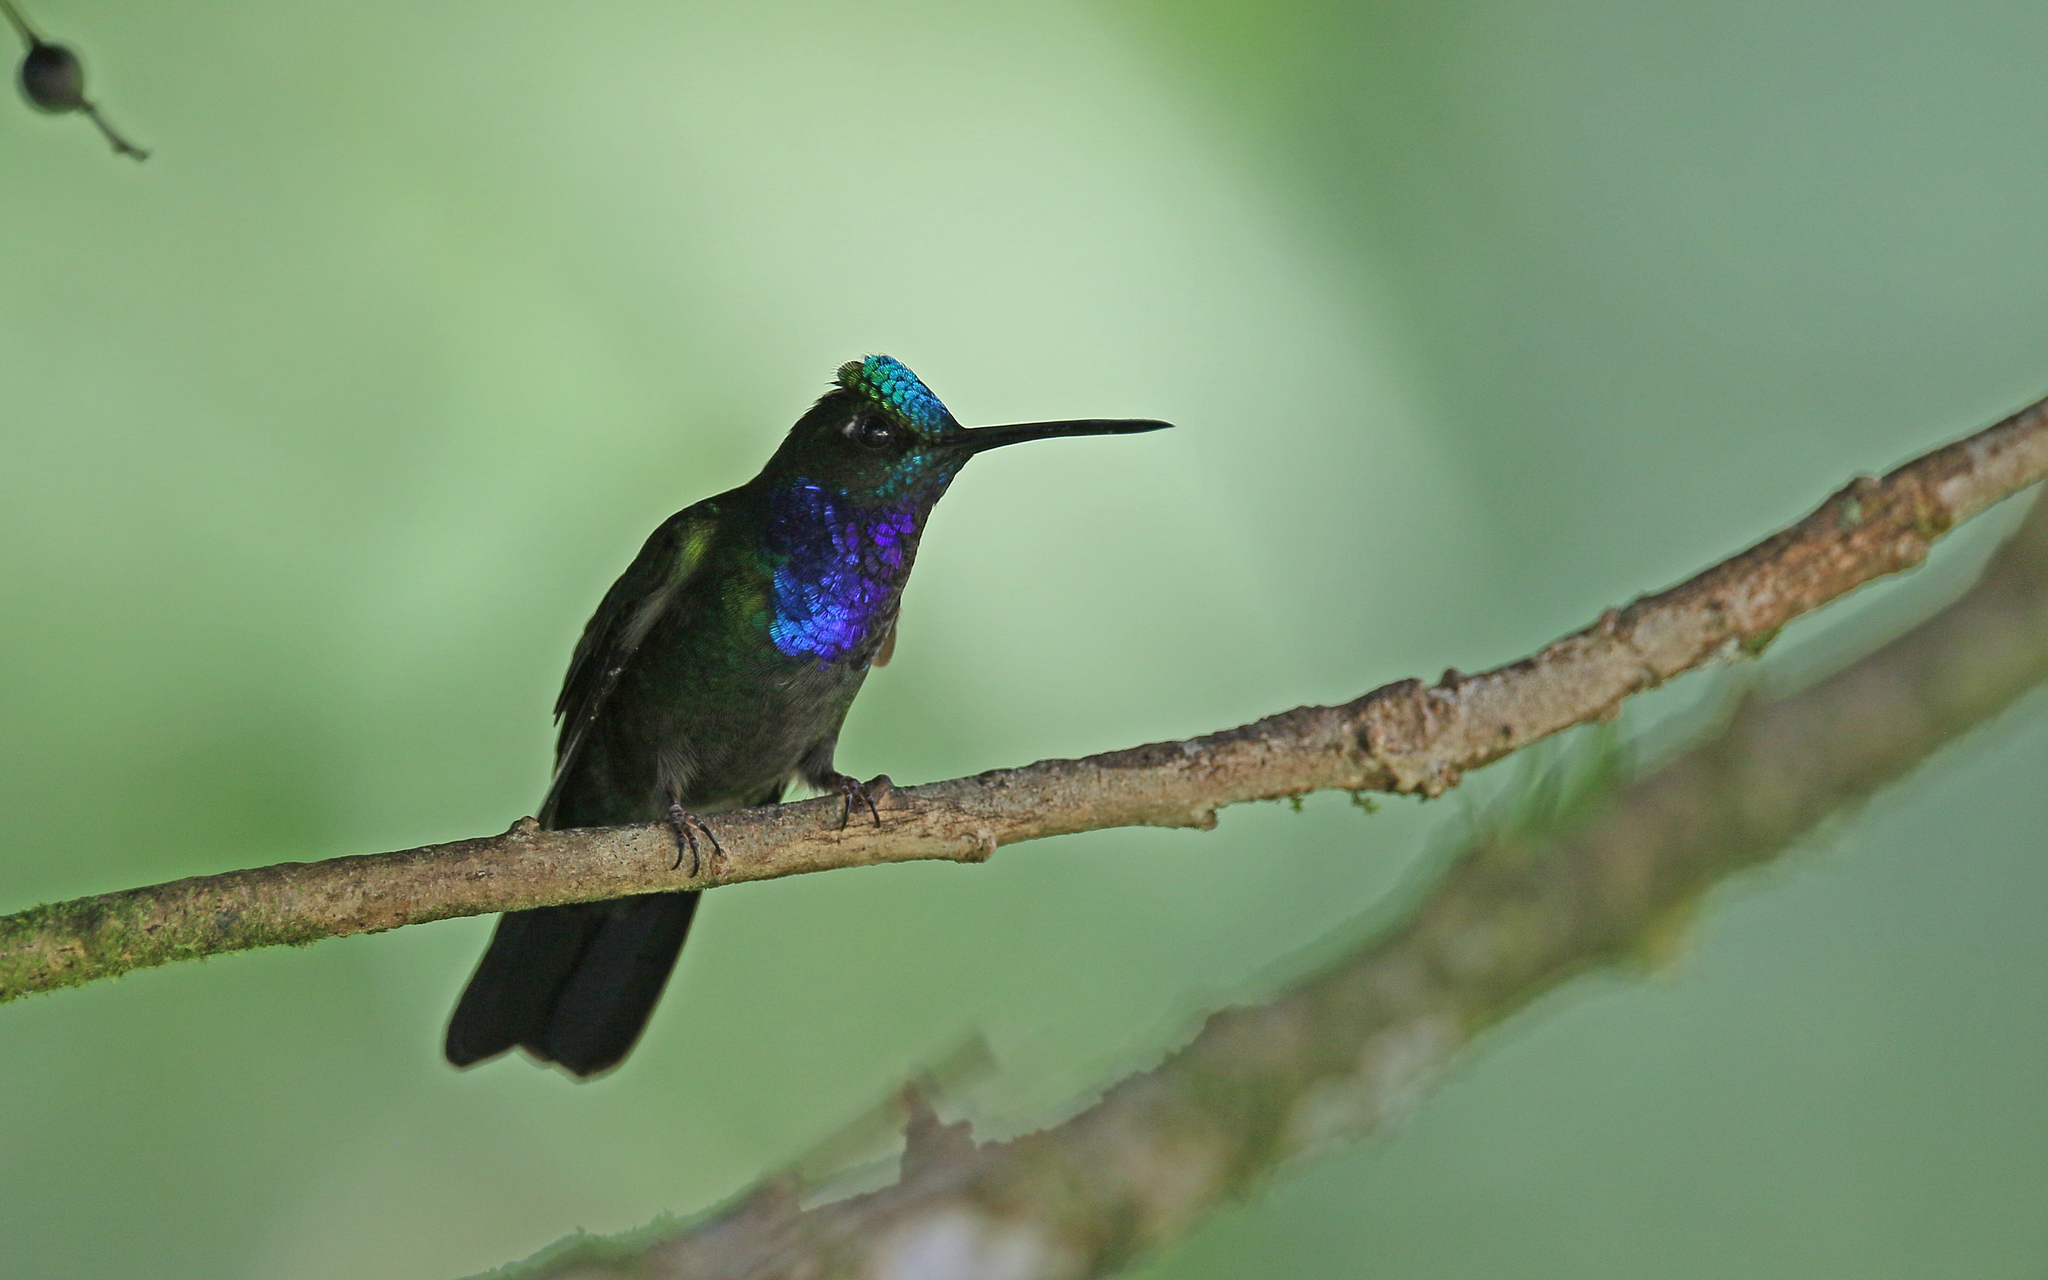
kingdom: Animalia
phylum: Chordata
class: Aves
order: Apodiformes
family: Trochilidae
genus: Campylopterus
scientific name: Campylopterus villaviscensio
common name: Napo sabrewing
